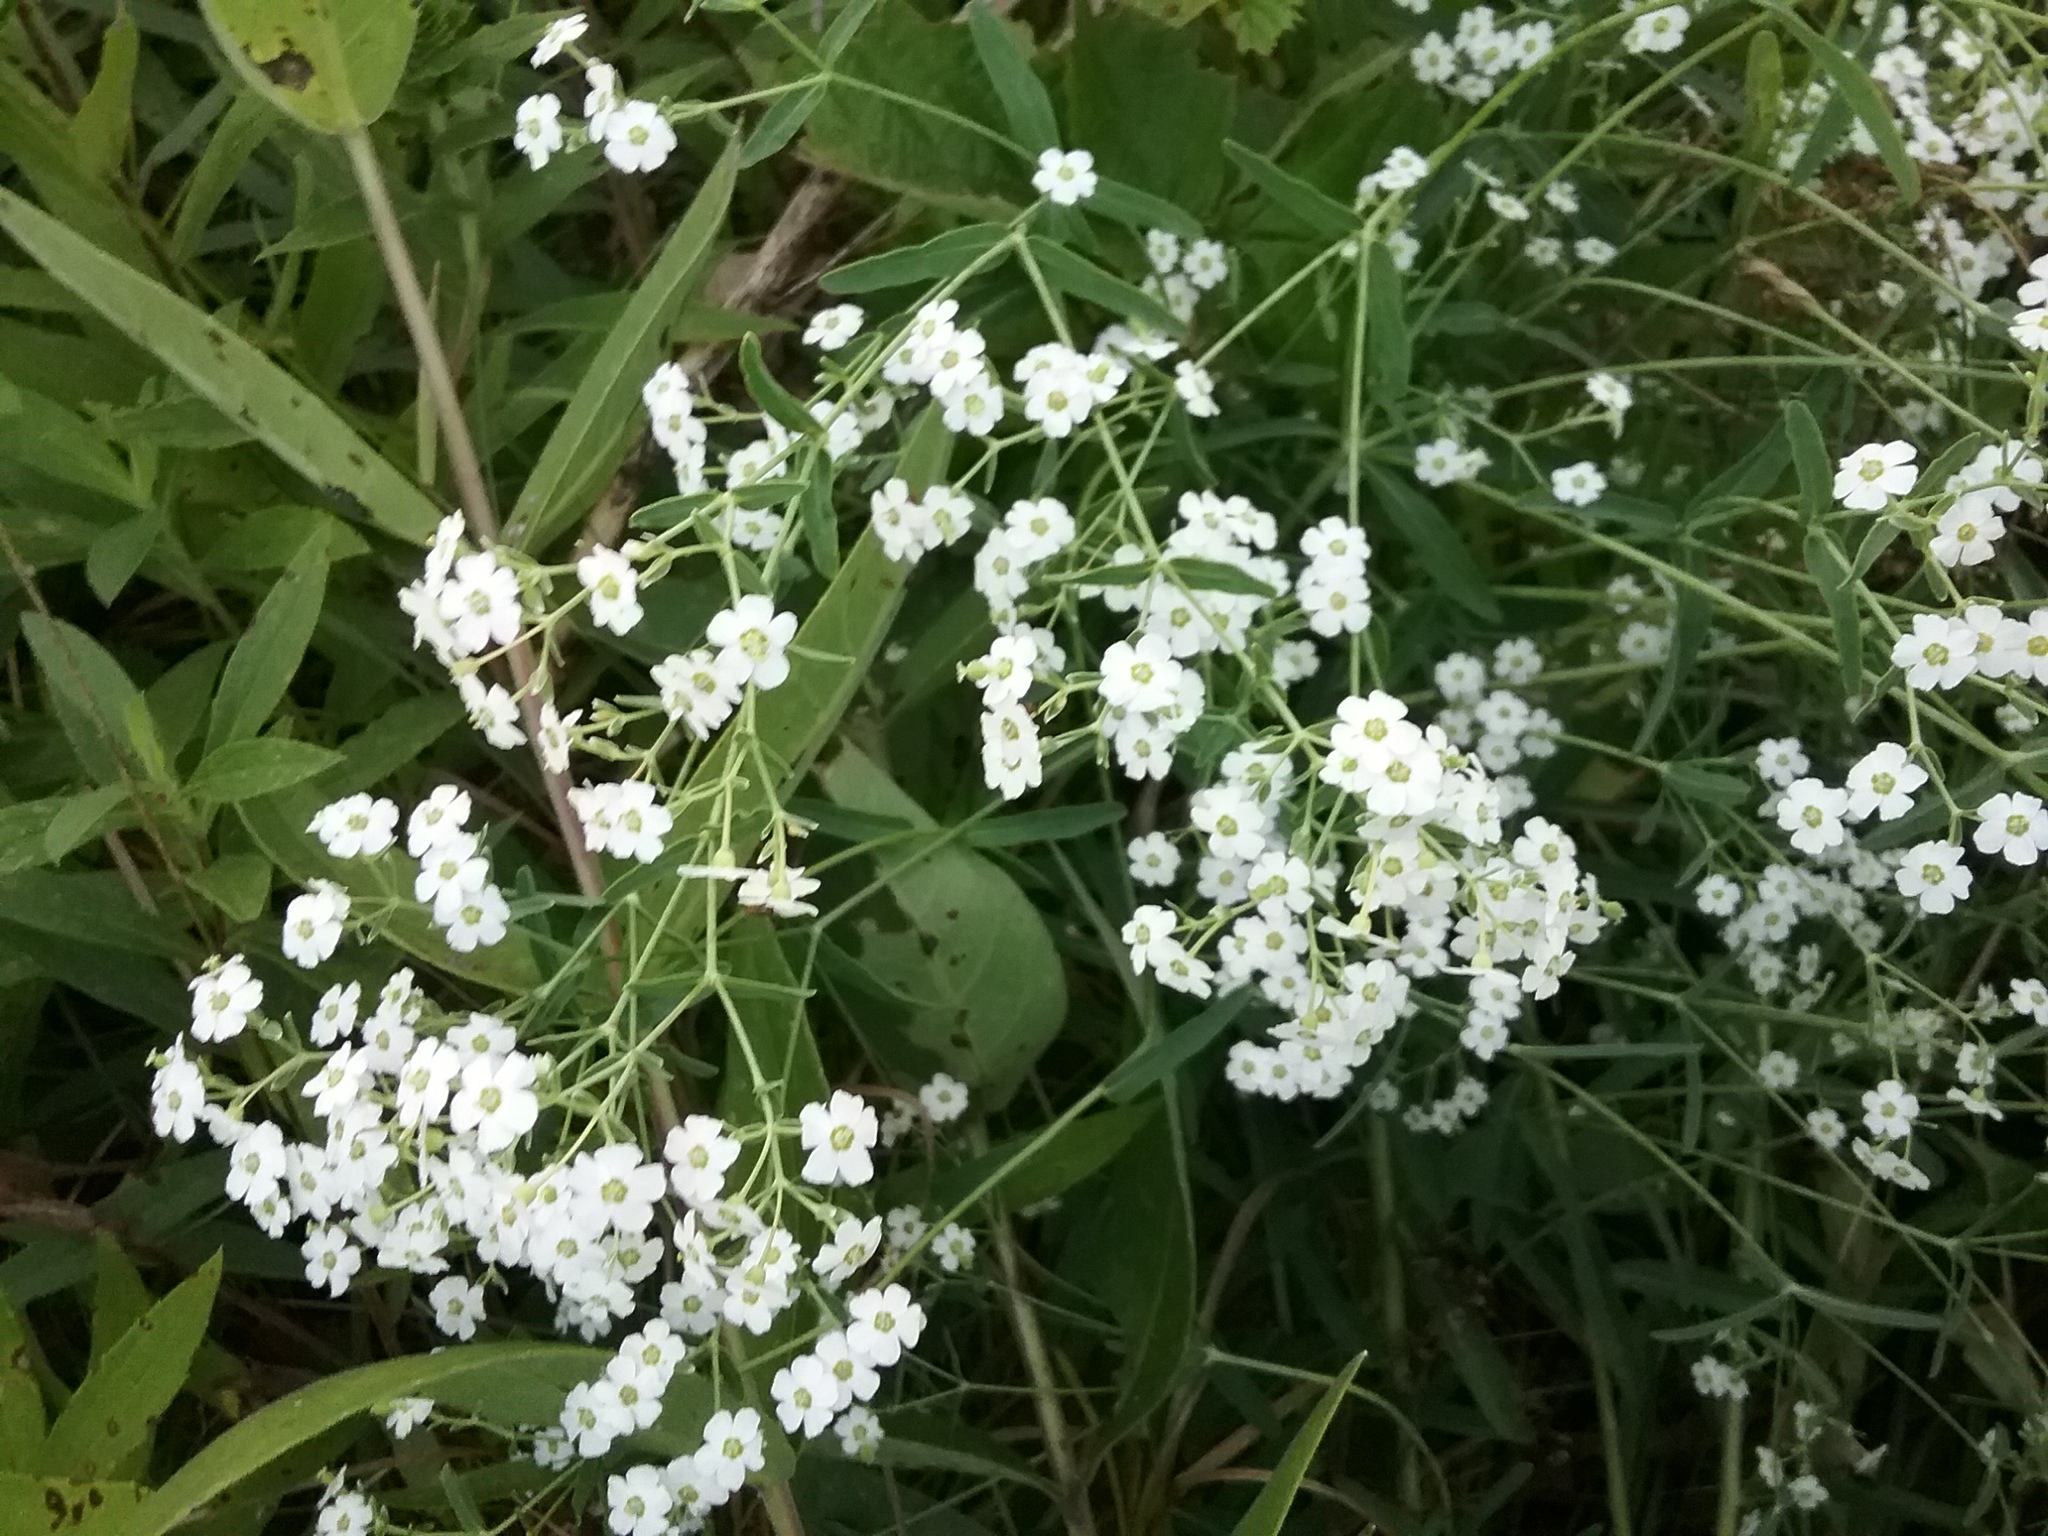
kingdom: Plantae
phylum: Tracheophyta
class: Magnoliopsida
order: Malpighiales
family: Euphorbiaceae
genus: Euphorbia
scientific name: Euphorbia corollata
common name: Flowering spurge
